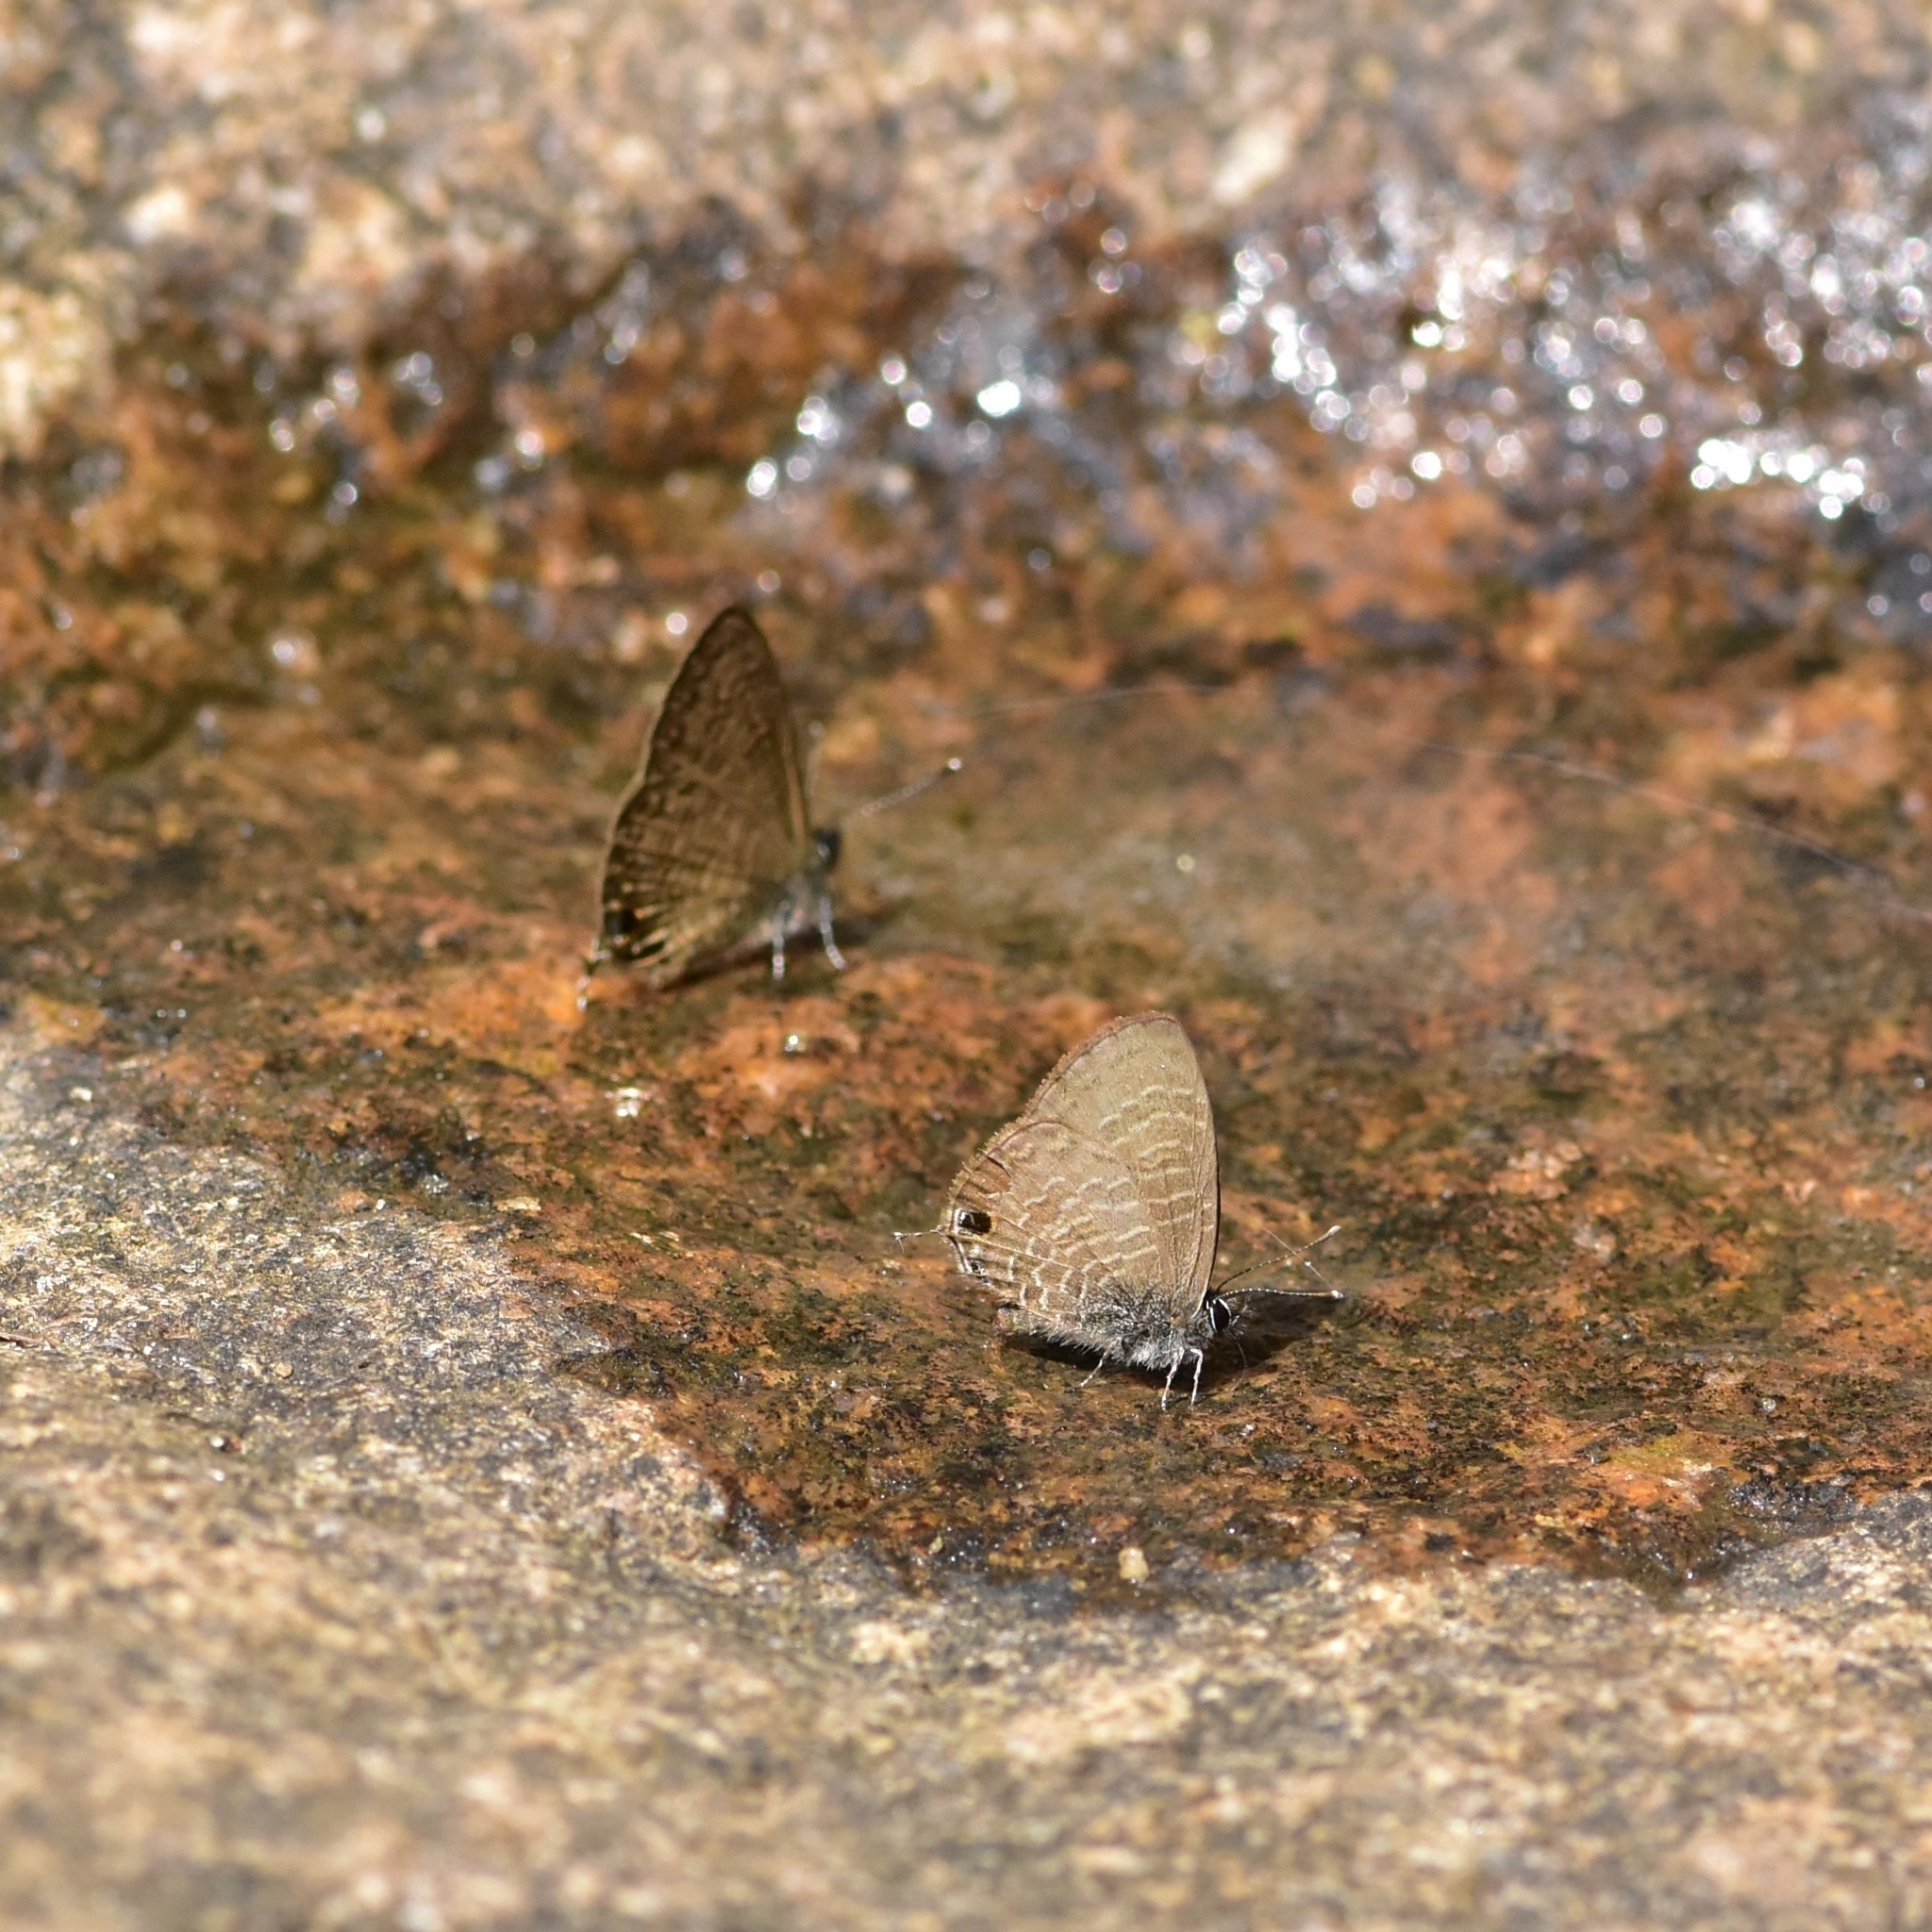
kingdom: Animalia
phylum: Arthropoda
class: Insecta
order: Lepidoptera
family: Lycaenidae
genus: Prosotas
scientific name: Prosotas nora
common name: Common line blue
